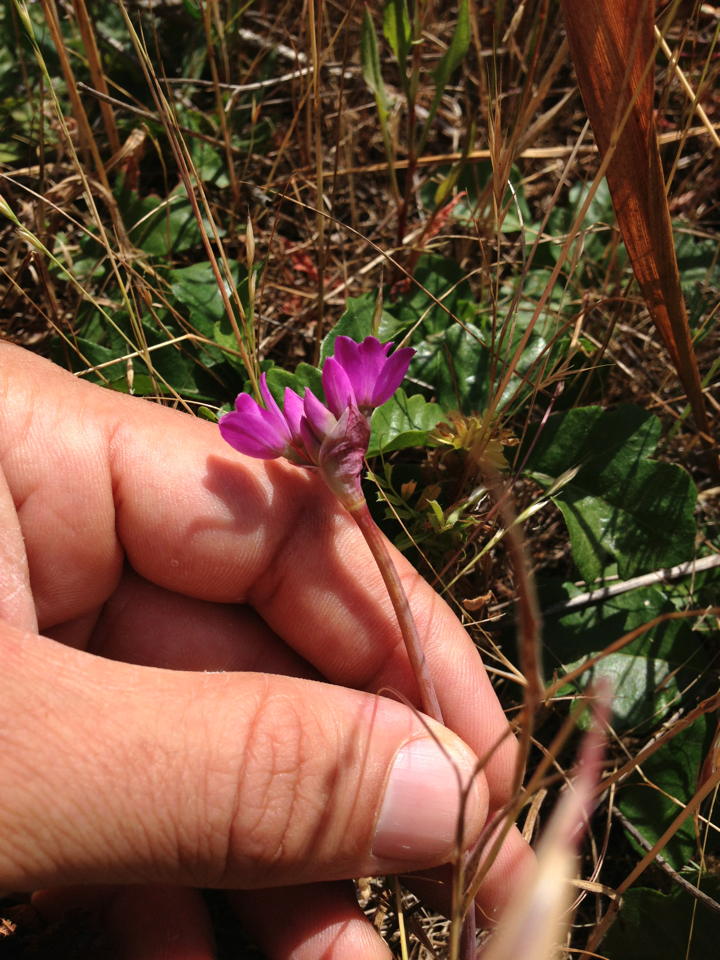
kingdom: Plantae
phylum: Tracheophyta
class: Liliopsida
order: Asparagales
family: Amaryllidaceae
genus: Allium
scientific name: Allium dichlamydeum
